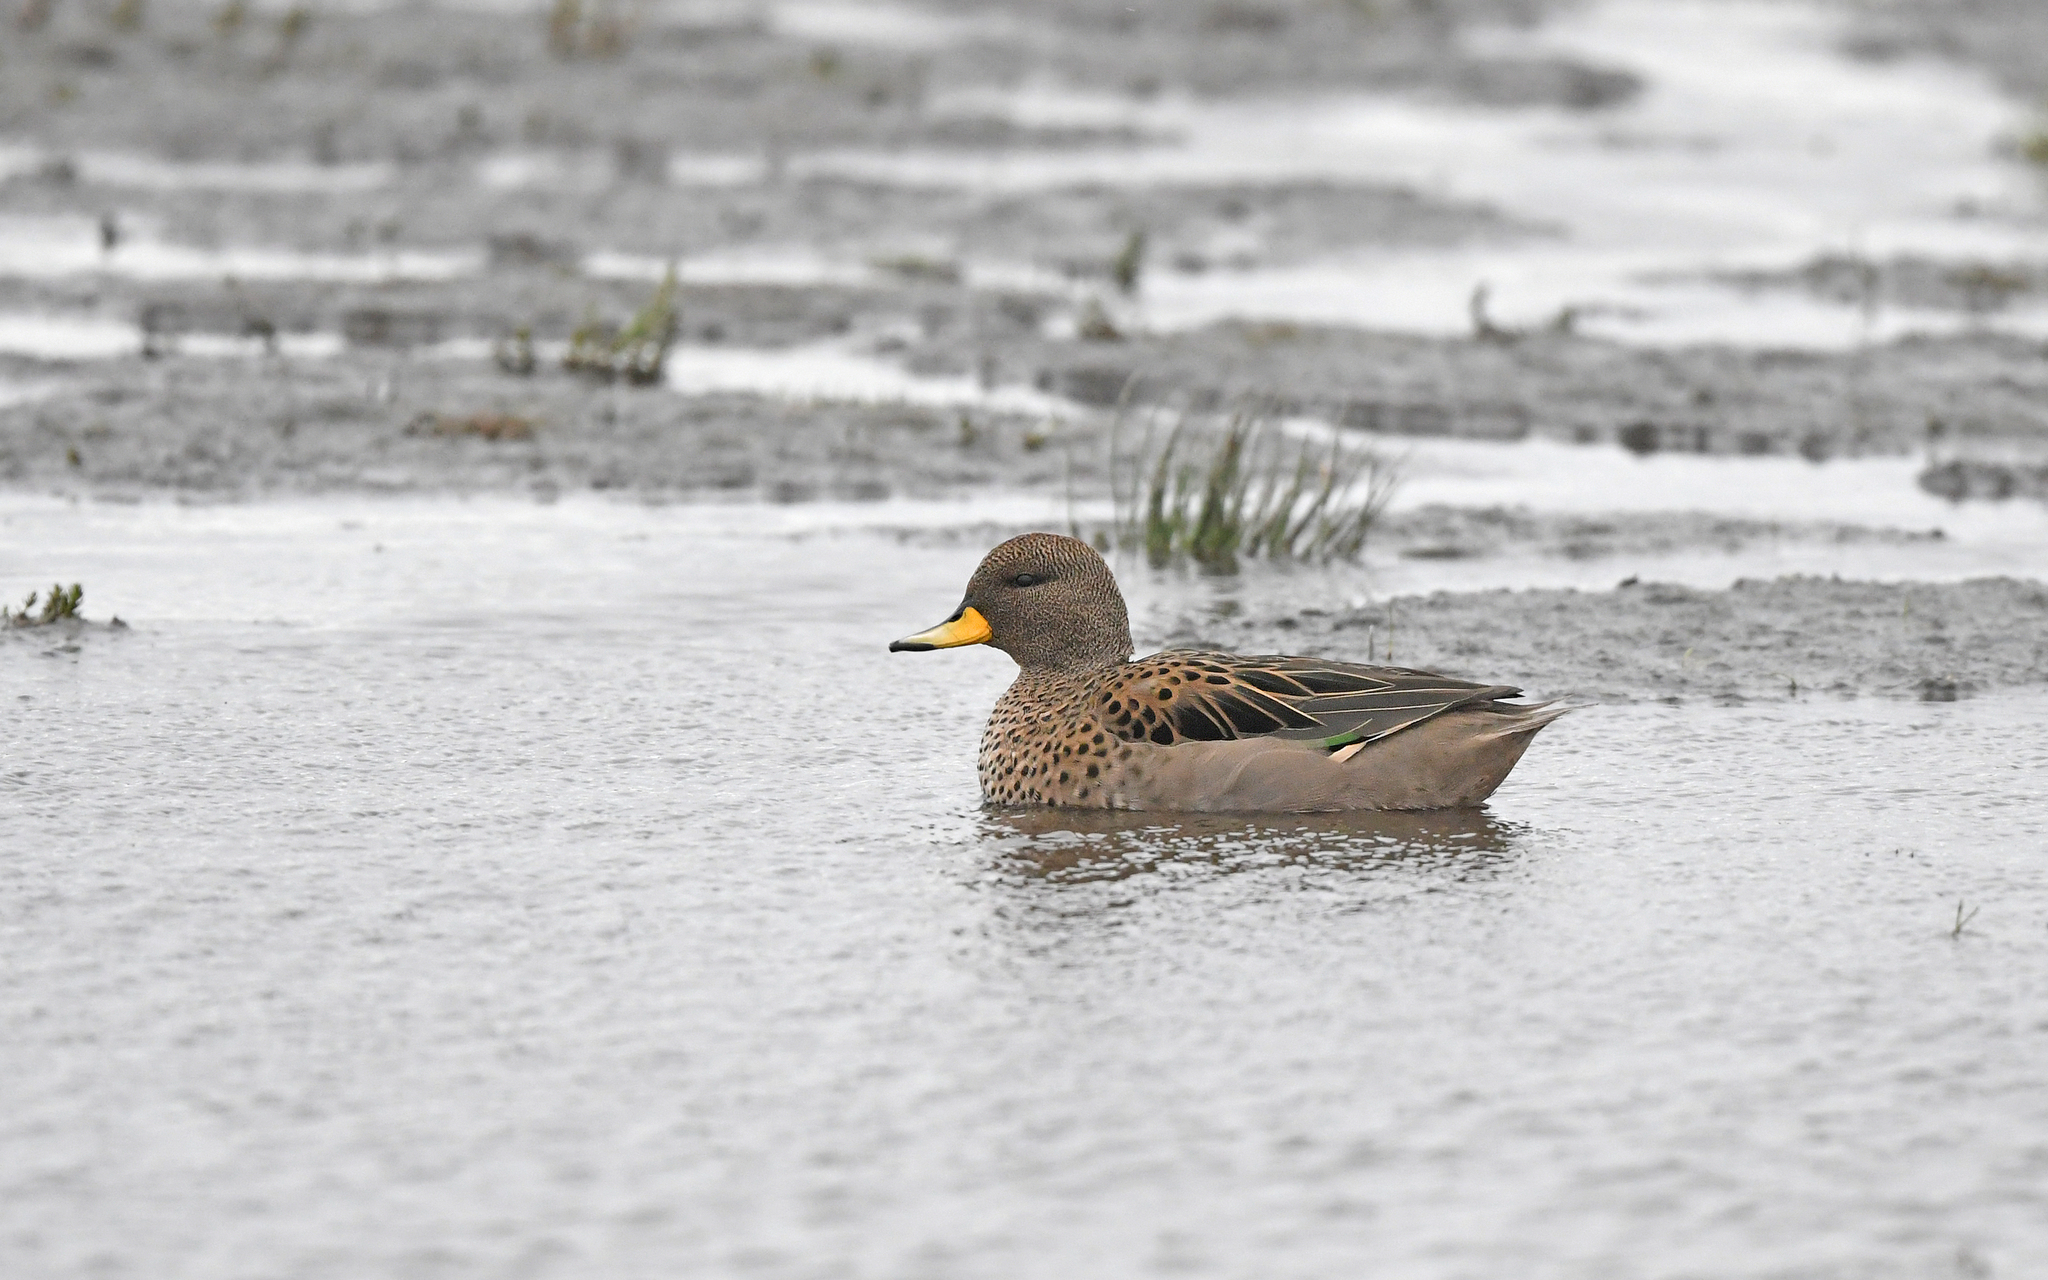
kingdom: Animalia
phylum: Chordata
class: Aves
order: Anseriformes
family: Anatidae
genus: Anas
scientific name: Anas flavirostris
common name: Yellow-billed teal
